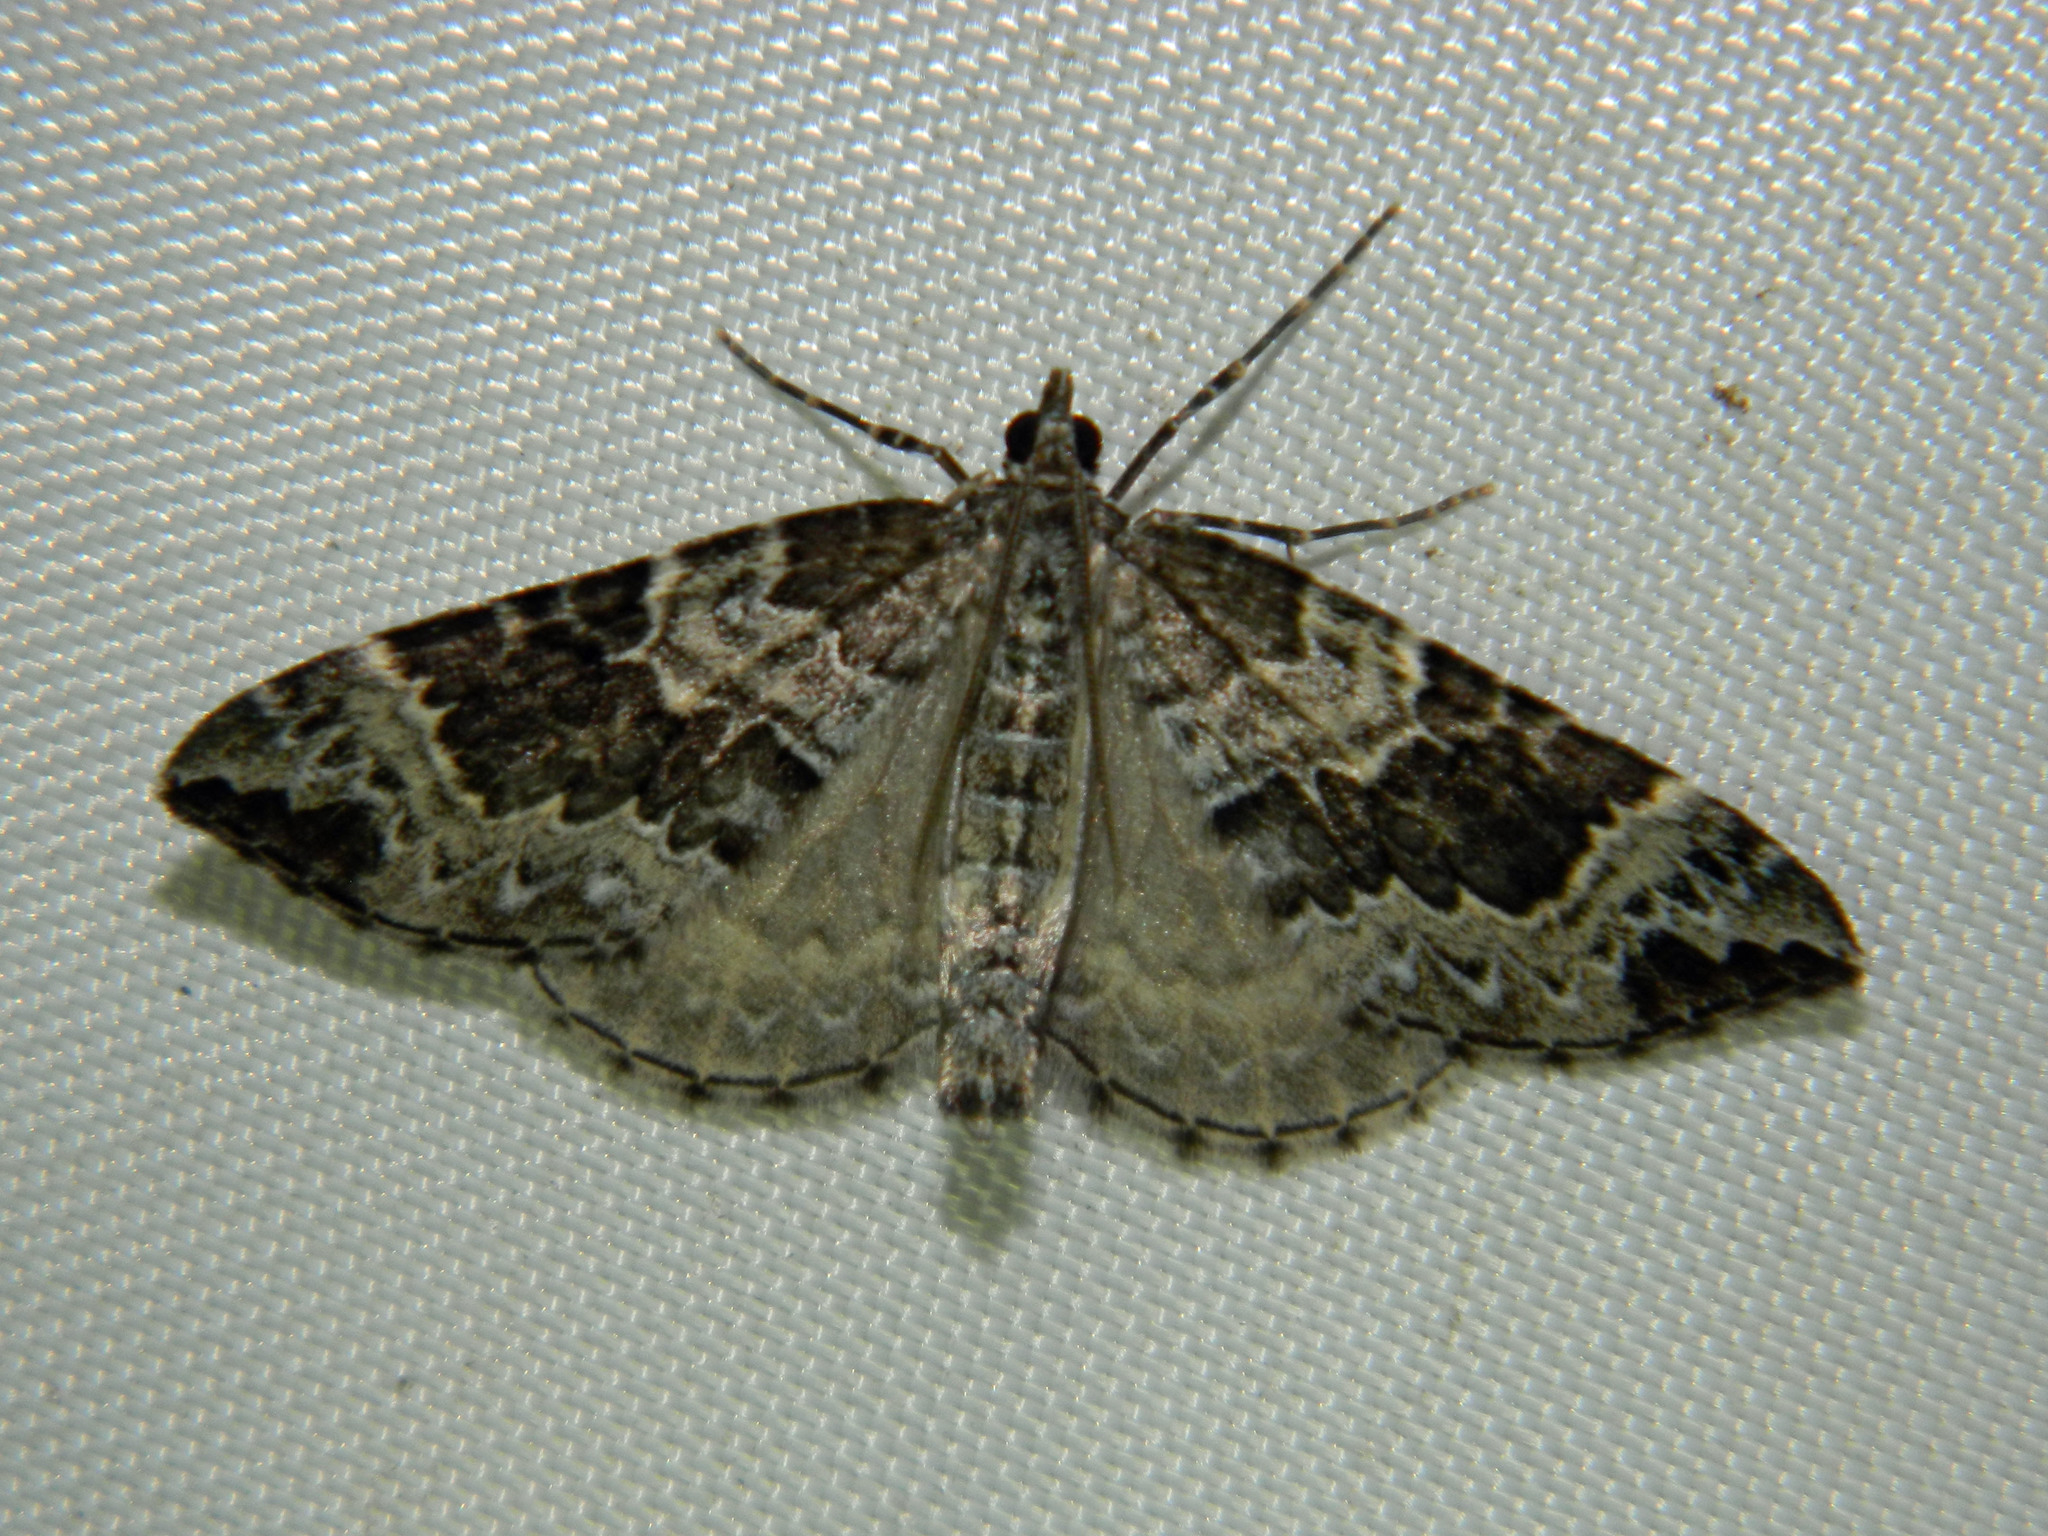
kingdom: Animalia
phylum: Arthropoda
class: Insecta
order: Lepidoptera
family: Geometridae
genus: Eulithis
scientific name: Eulithis explanata
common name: White eulithis
